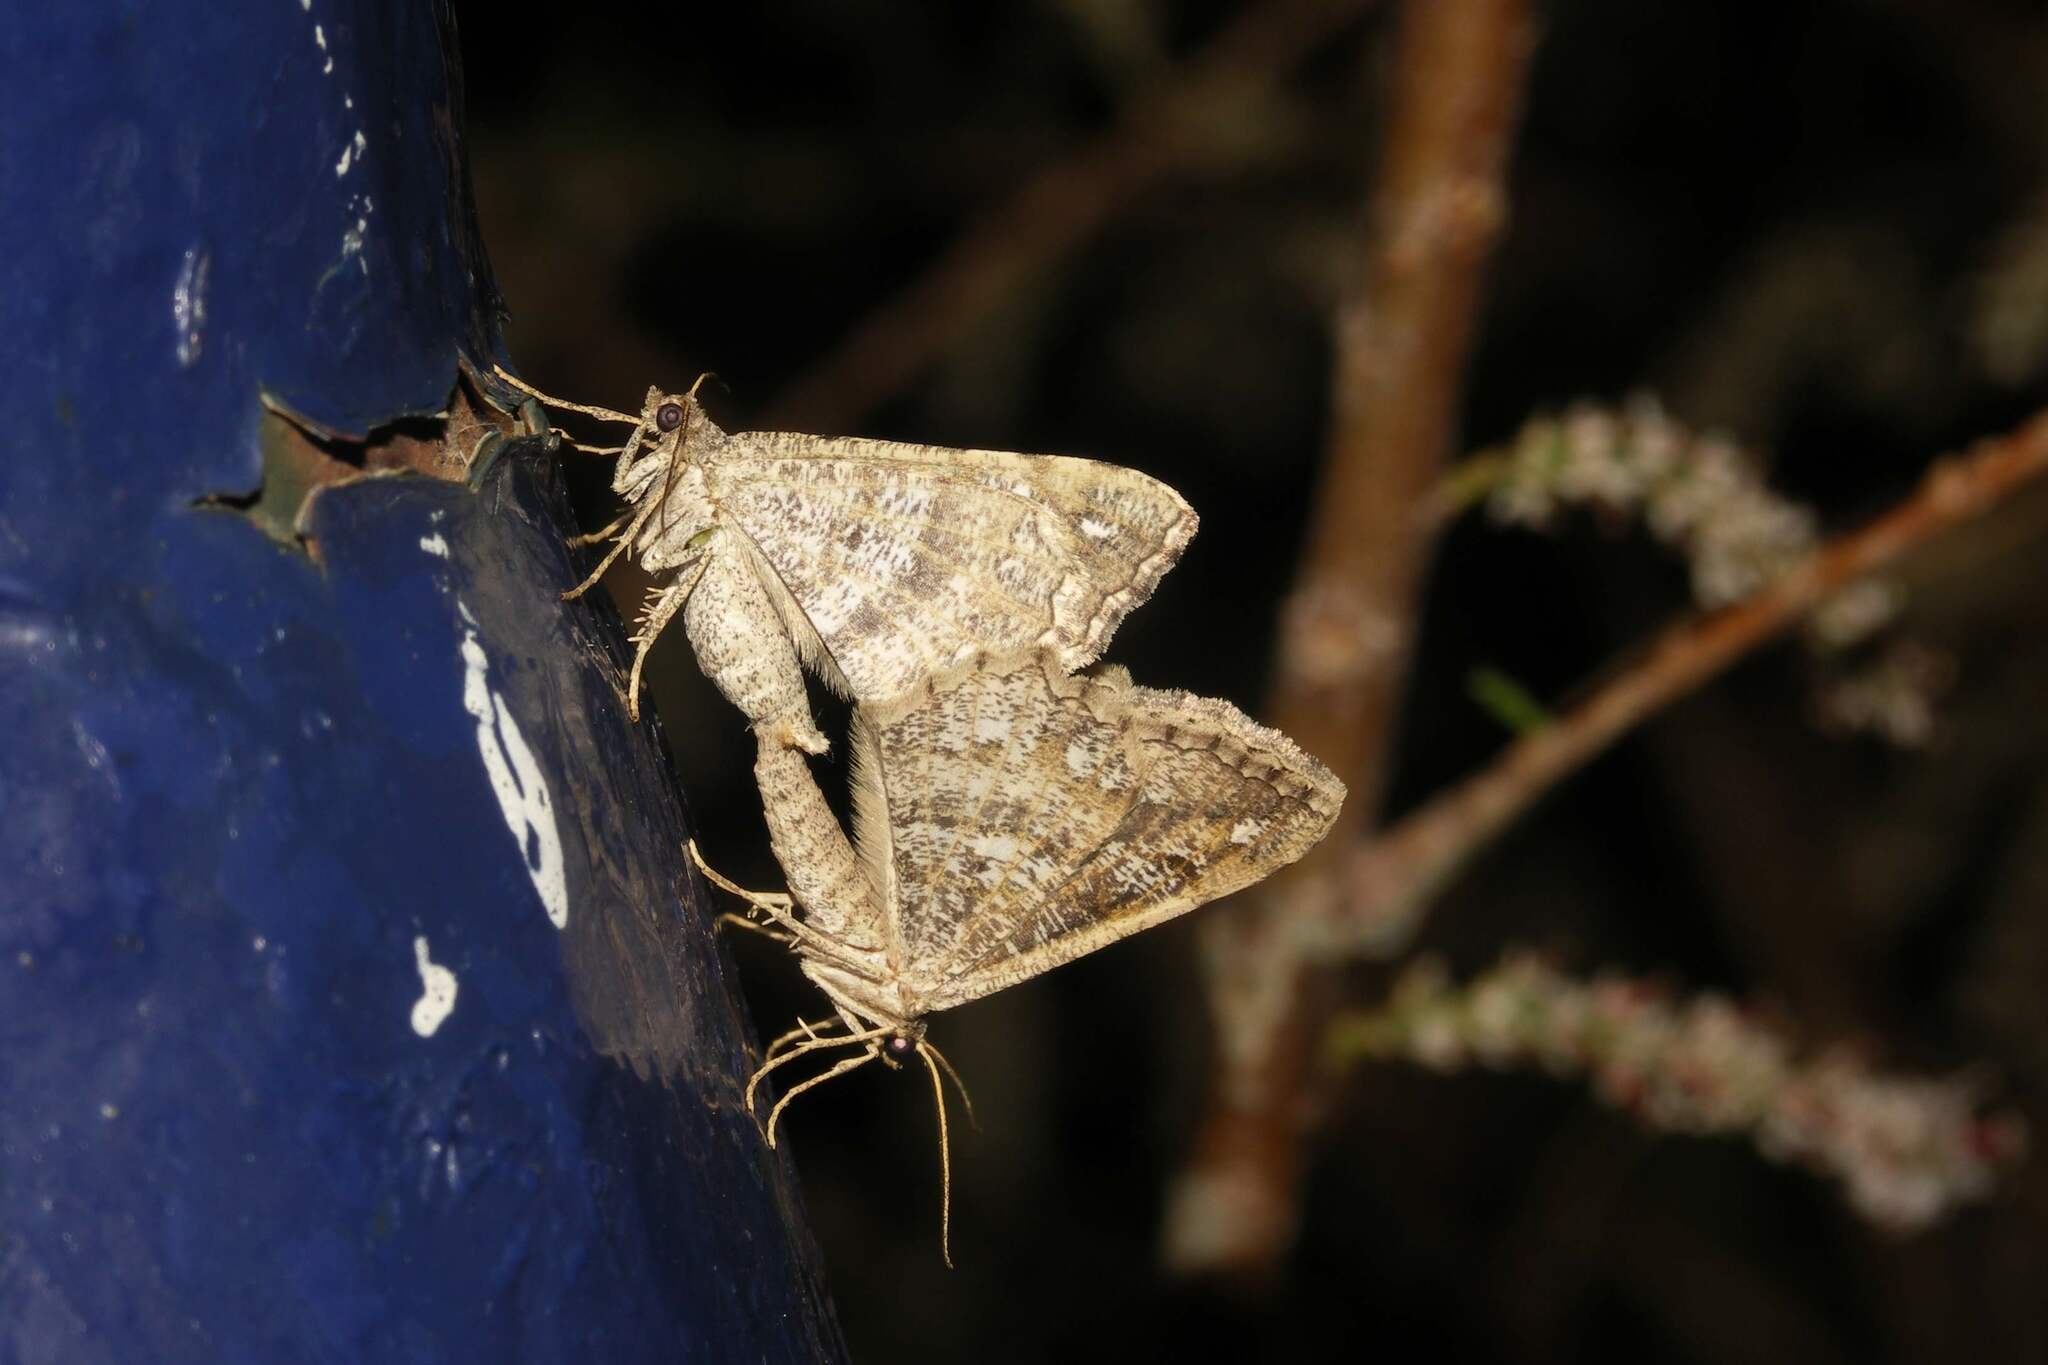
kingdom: Animalia
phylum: Arthropoda
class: Insecta
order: Lepidoptera
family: Geometridae
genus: Chiasmia
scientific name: Chiasmia aestimaria
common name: Tamarisk peacock
